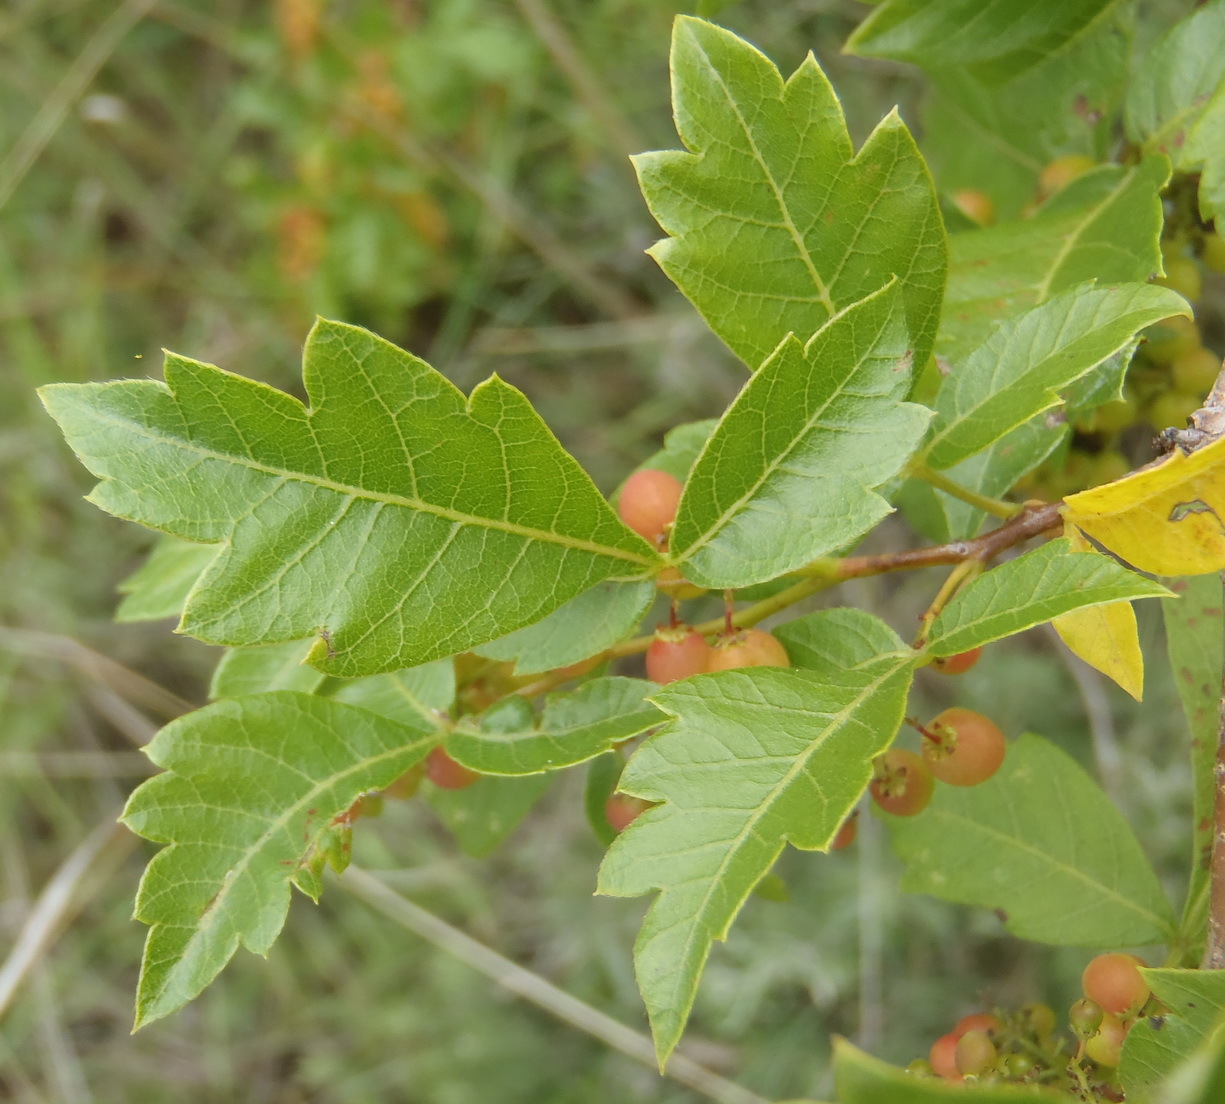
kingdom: Plantae
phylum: Tracheophyta
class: Magnoliopsida
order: Sapindales
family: Anacardiaceae
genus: Searsia
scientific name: Searsia dentata
